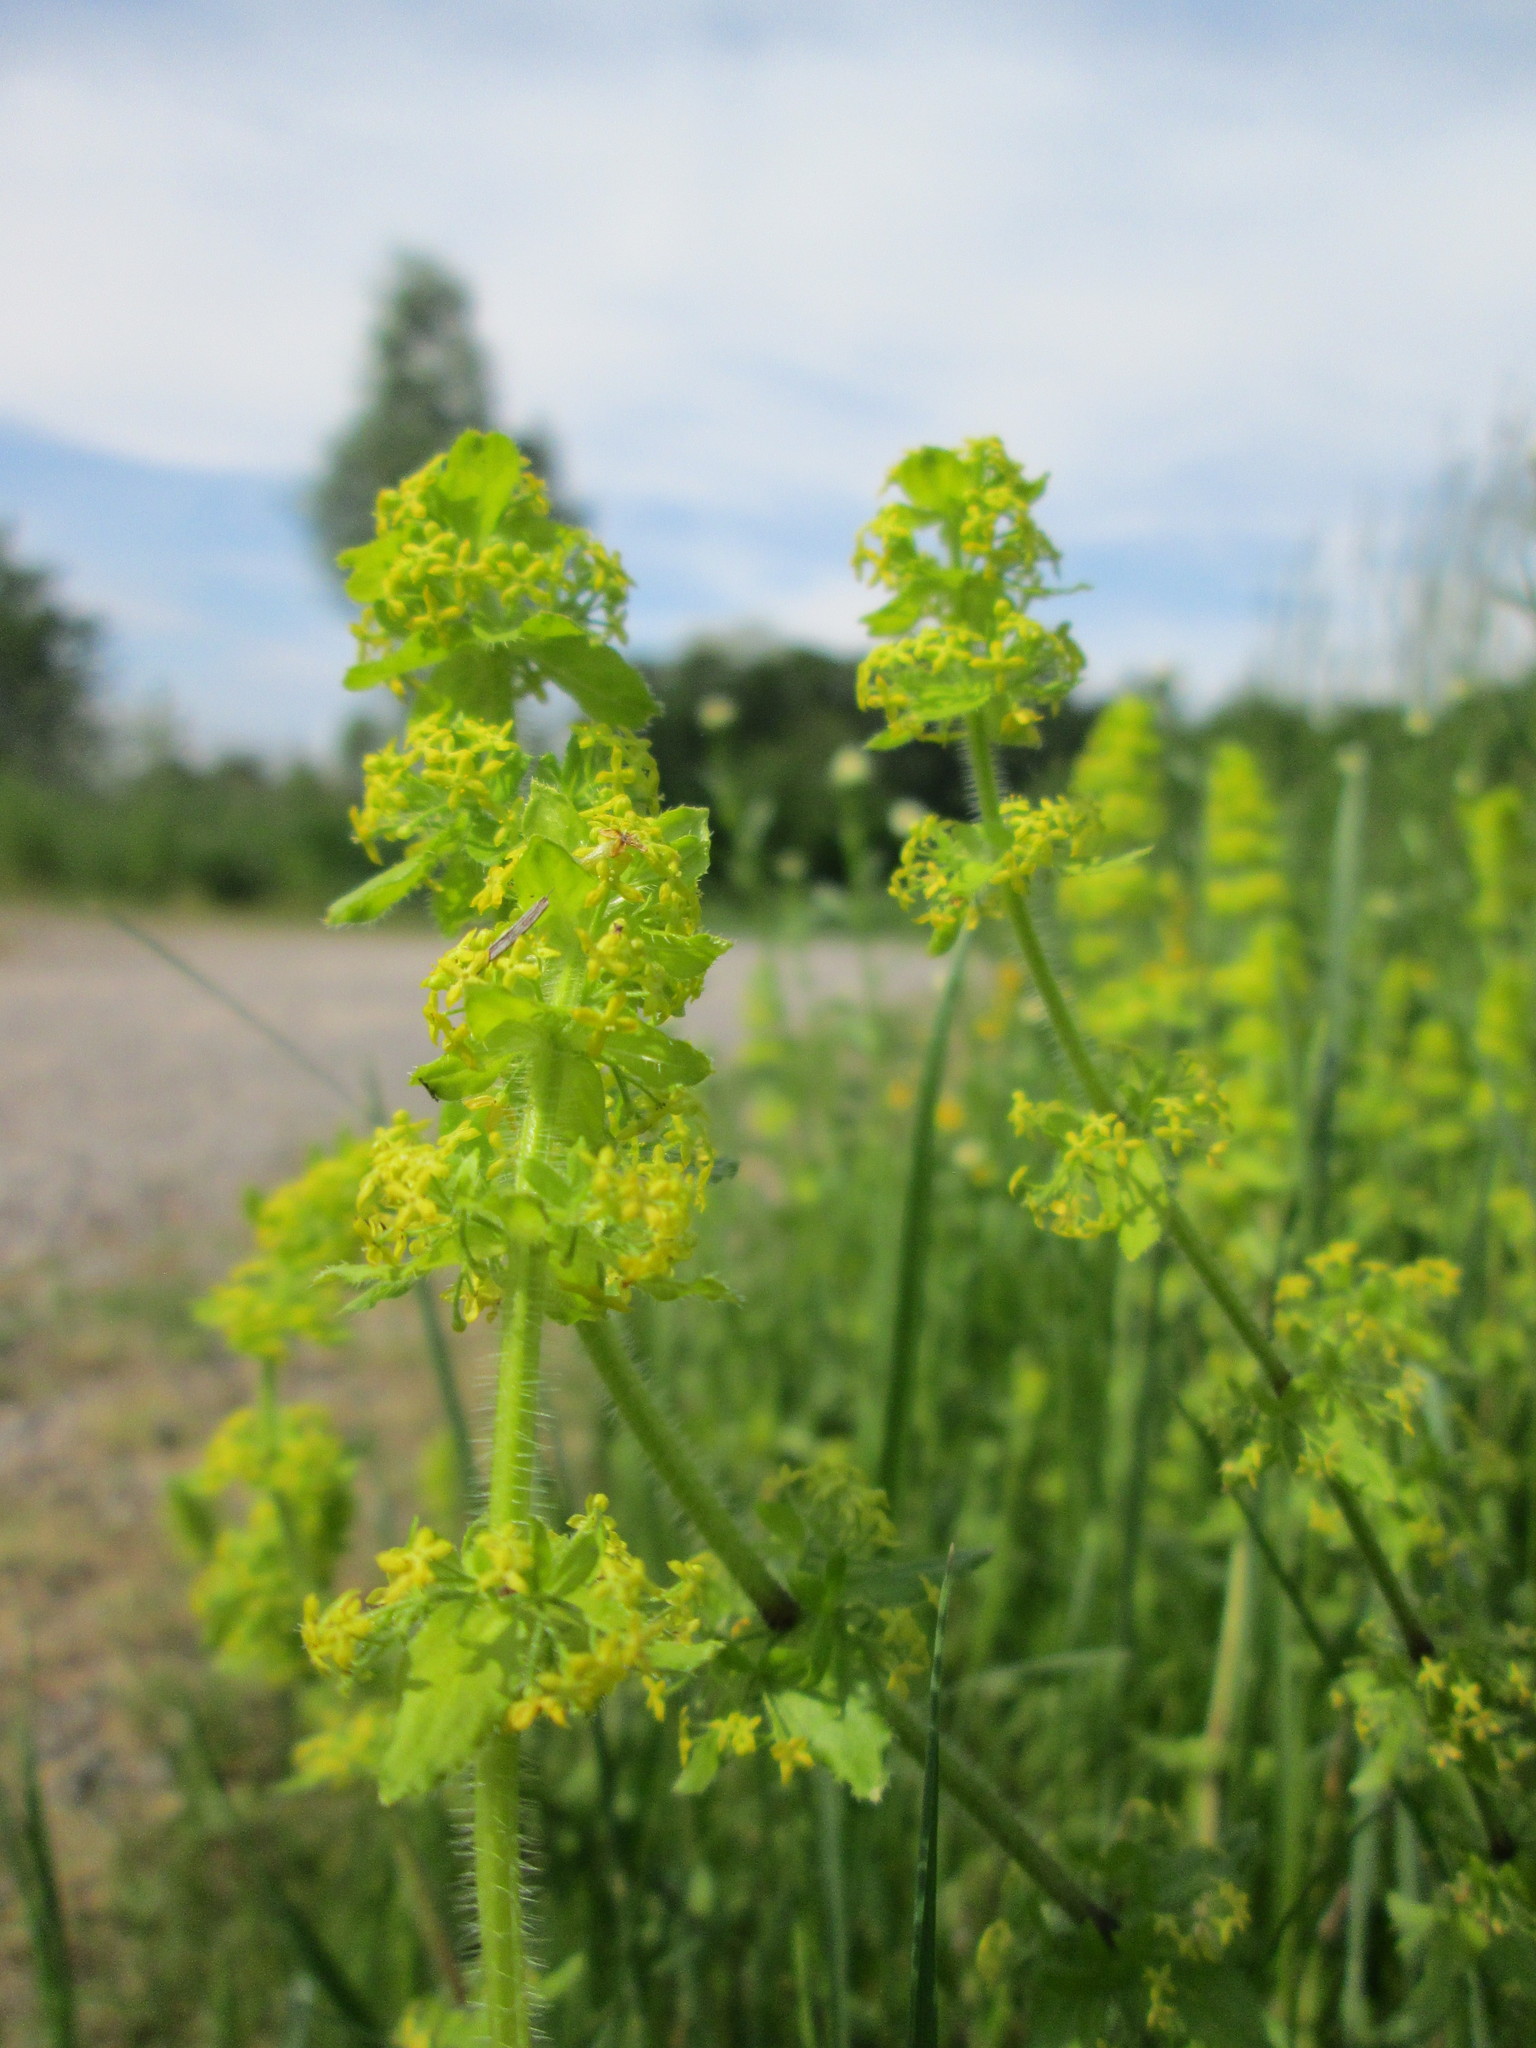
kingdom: Plantae
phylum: Tracheophyta
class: Magnoliopsida
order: Gentianales
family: Rubiaceae
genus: Cruciata
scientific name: Cruciata laevipes
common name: Crosswort
